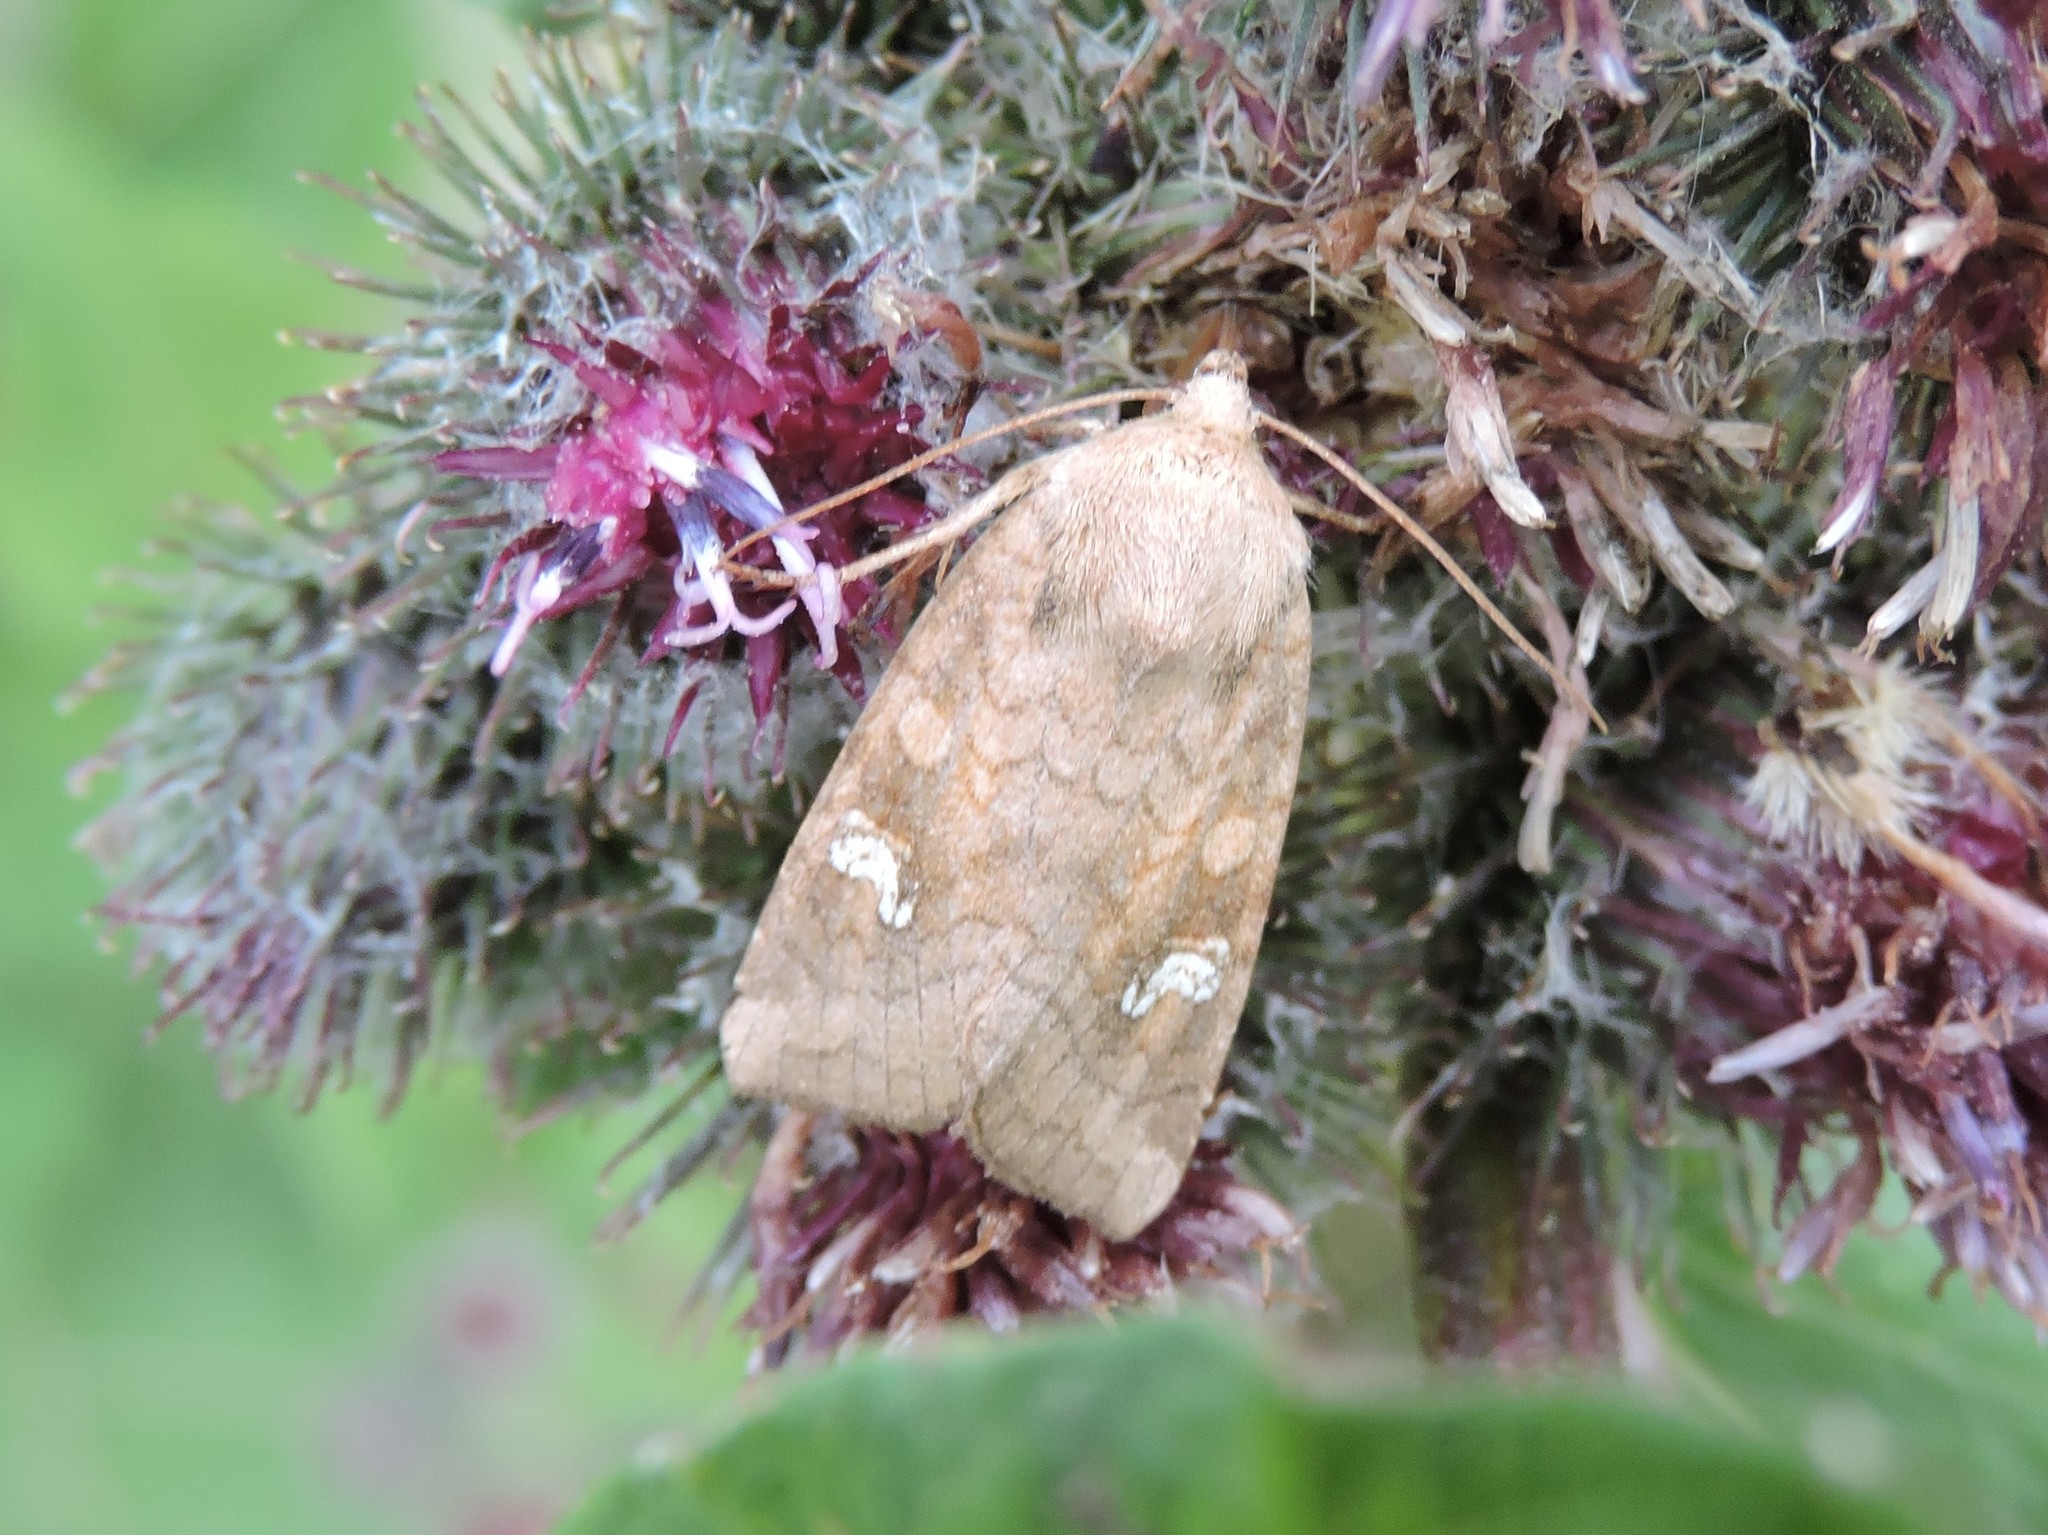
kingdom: Animalia
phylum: Arthropoda
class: Insecta
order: Lepidoptera
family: Noctuidae
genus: Amphipoea
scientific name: Amphipoea fucosa
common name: Saltern ear
